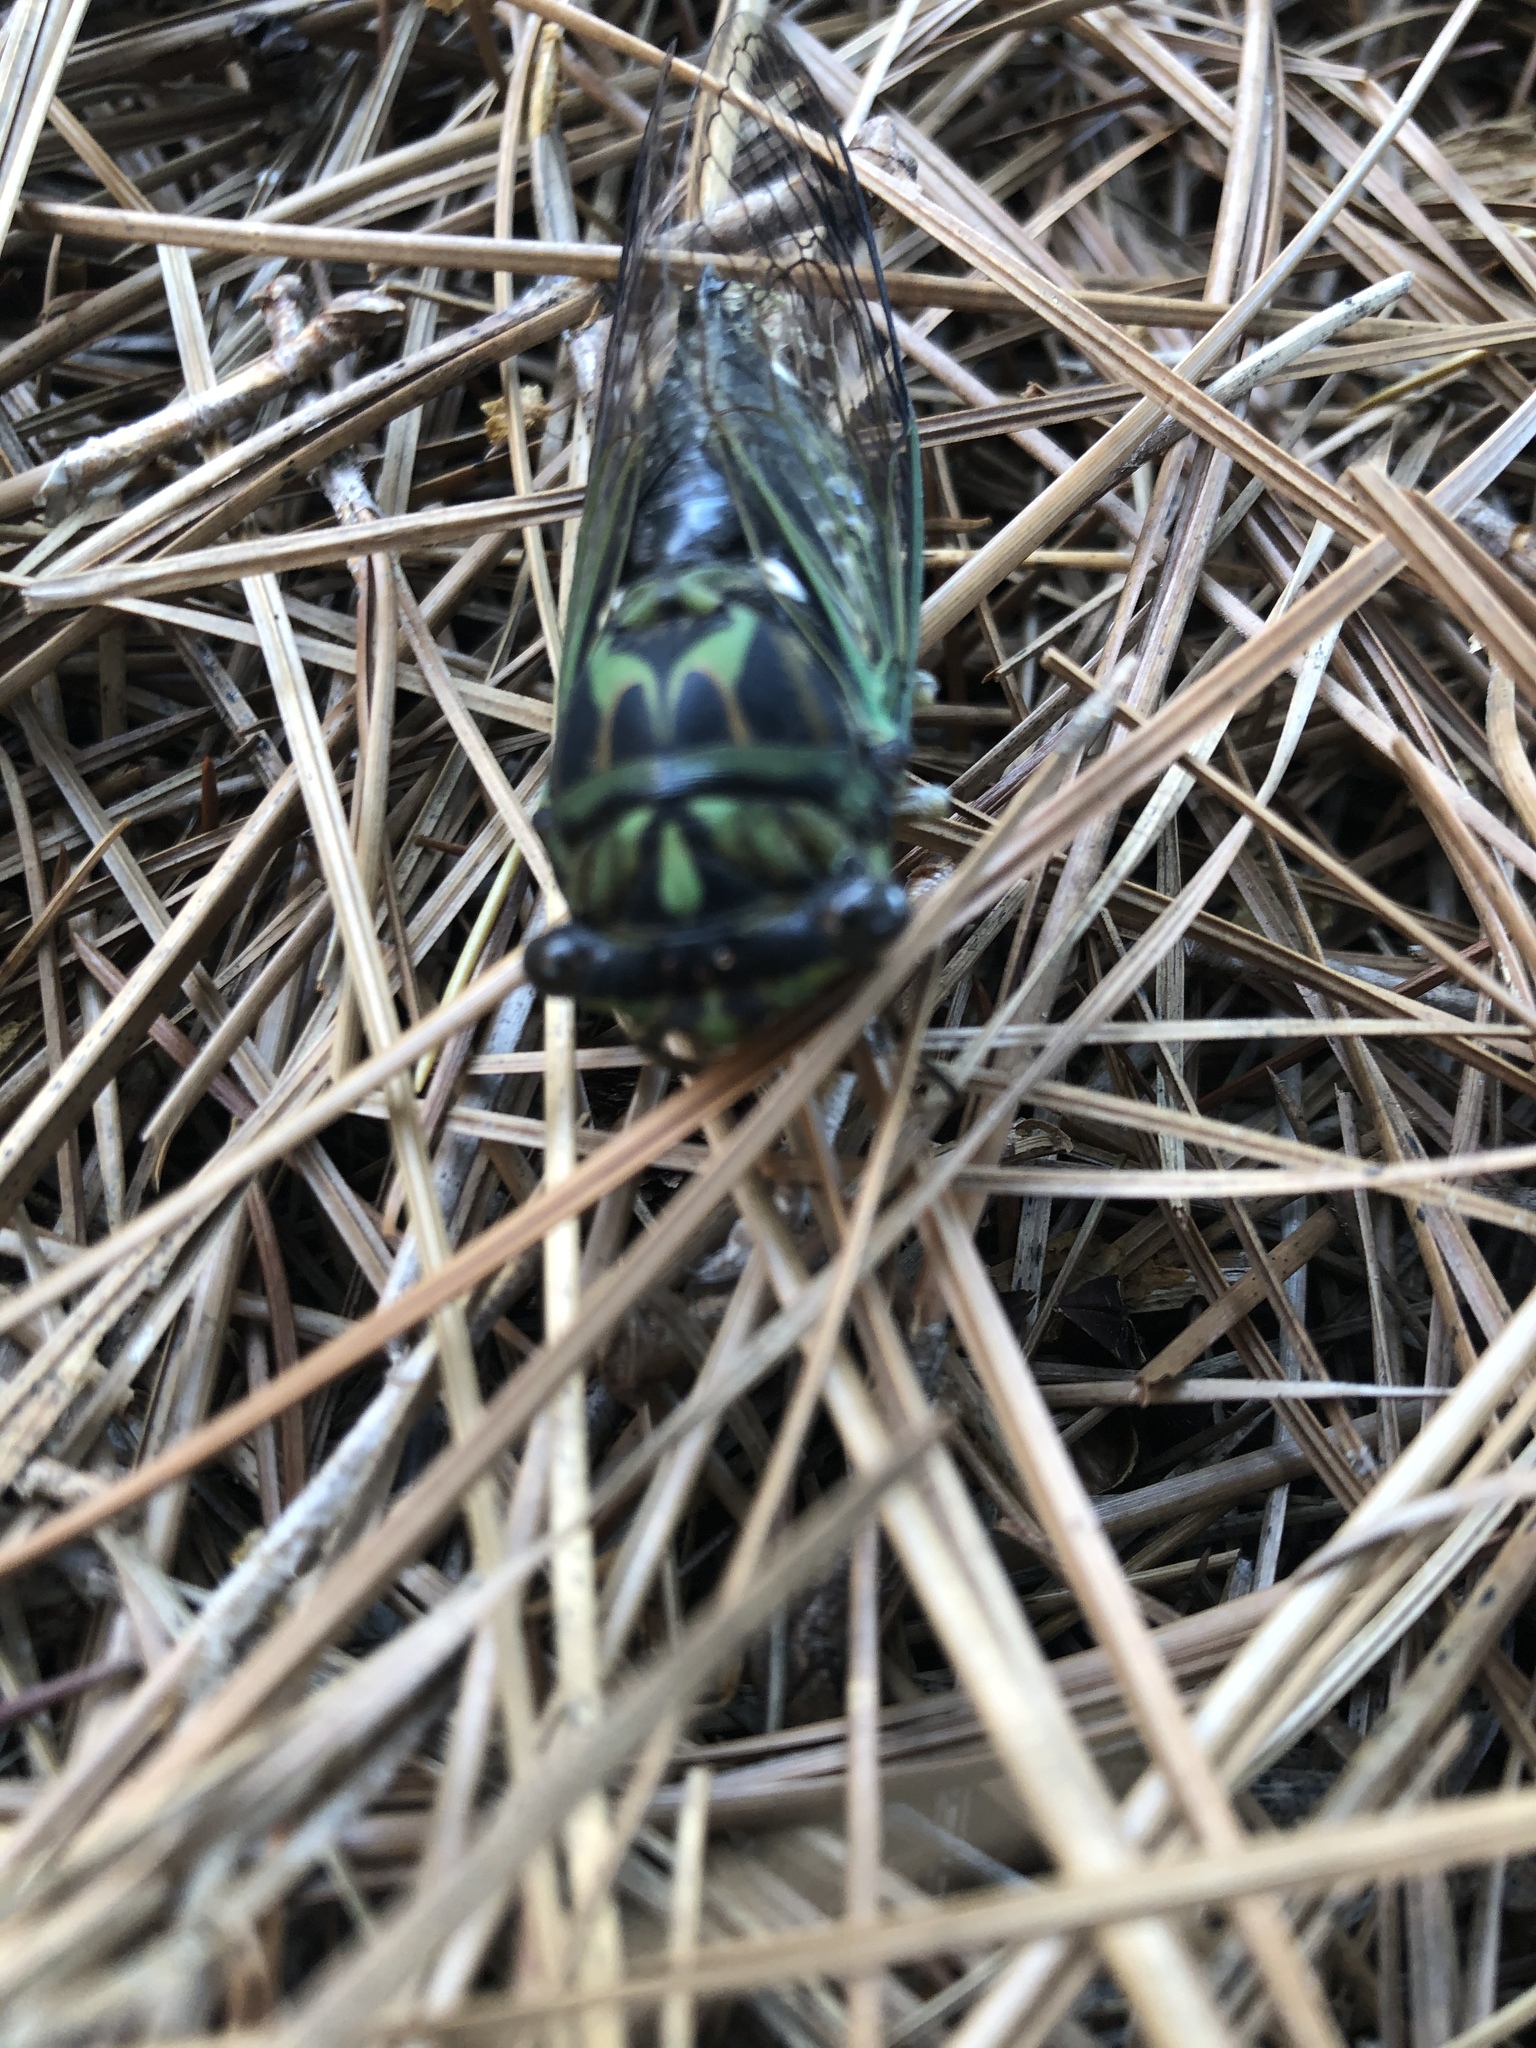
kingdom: Animalia
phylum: Arthropoda
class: Insecta
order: Hemiptera
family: Cicadidae
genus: Neotibicen
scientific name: Neotibicen robinsonianus
